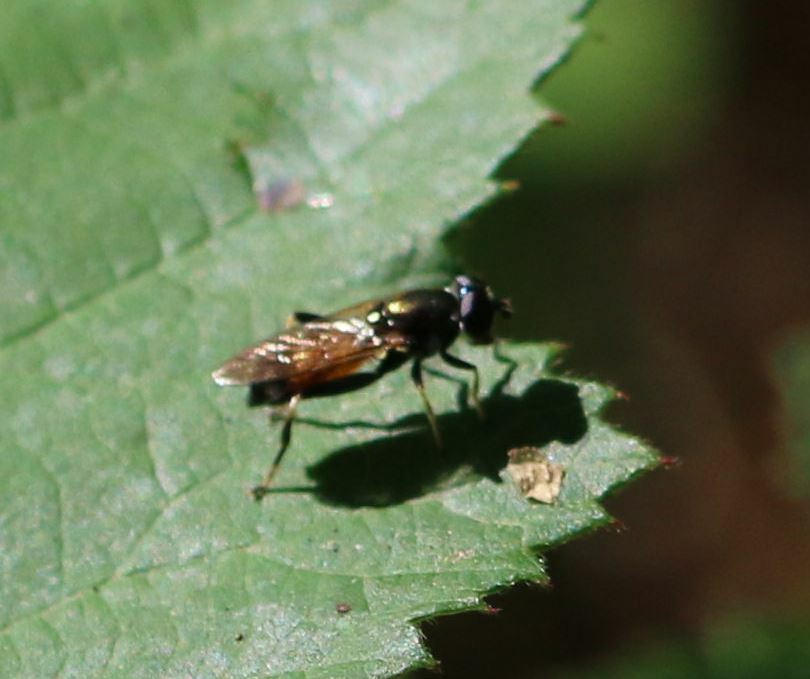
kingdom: Animalia
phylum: Arthropoda
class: Insecta
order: Diptera
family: Syrphidae
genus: Xylota
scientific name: Xylota segnis
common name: Brown-toed forest fly
